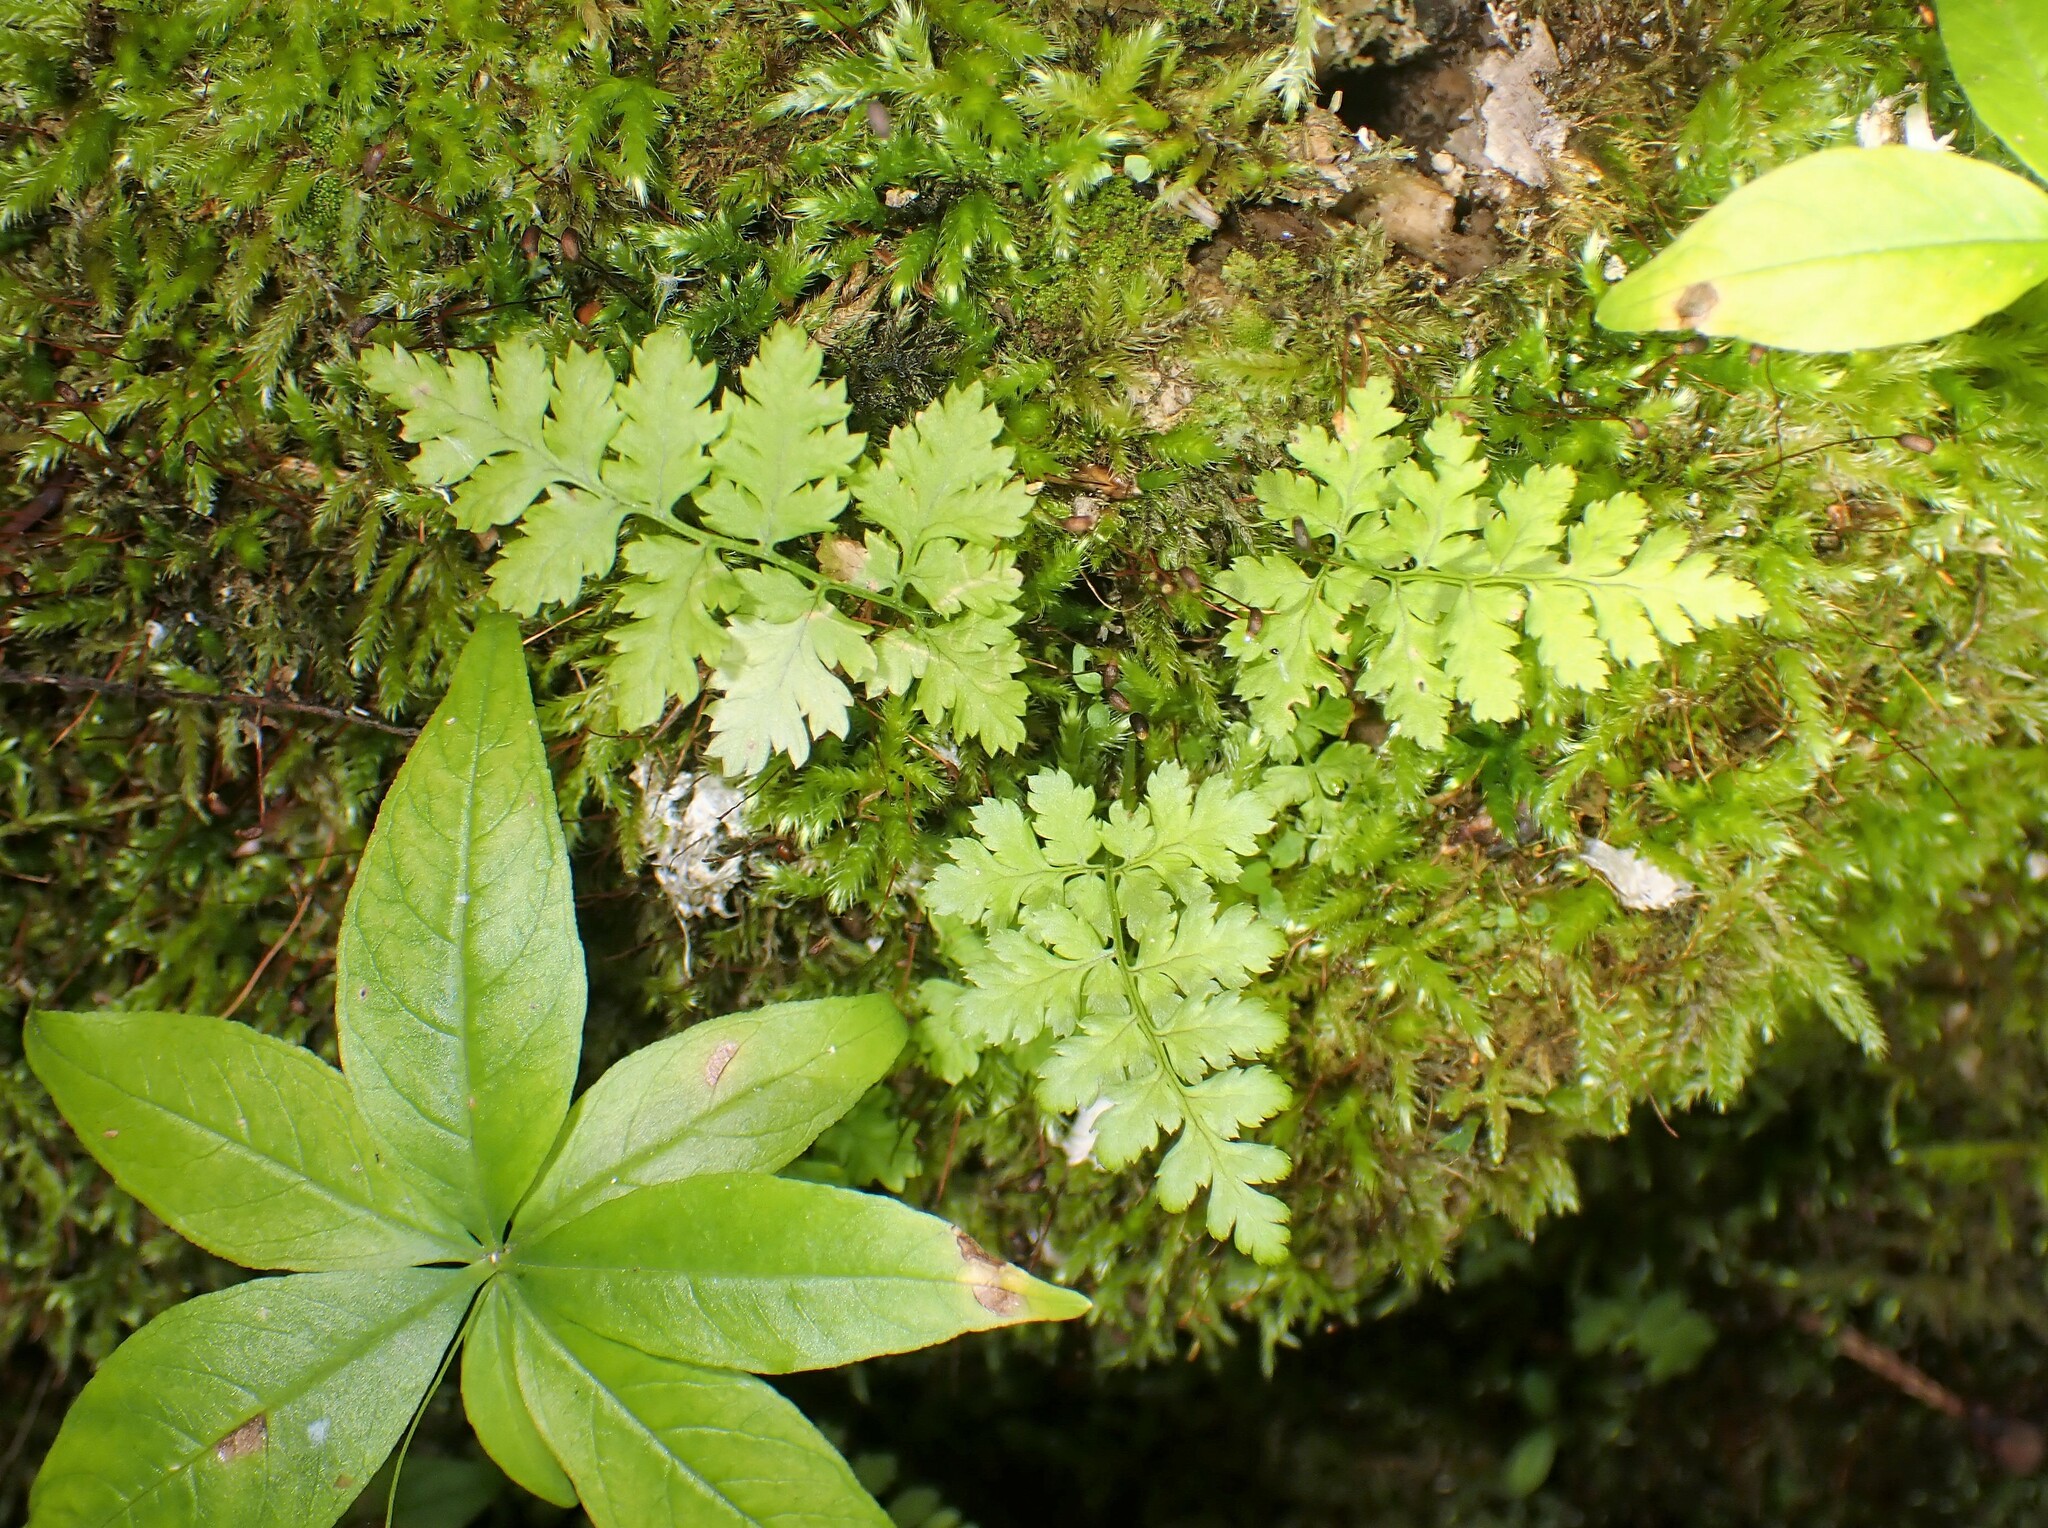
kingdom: Plantae
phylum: Tracheophyta
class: Polypodiopsida
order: Polypodiales
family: Dryopteridaceae
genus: Dryopteris
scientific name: Dryopteris
